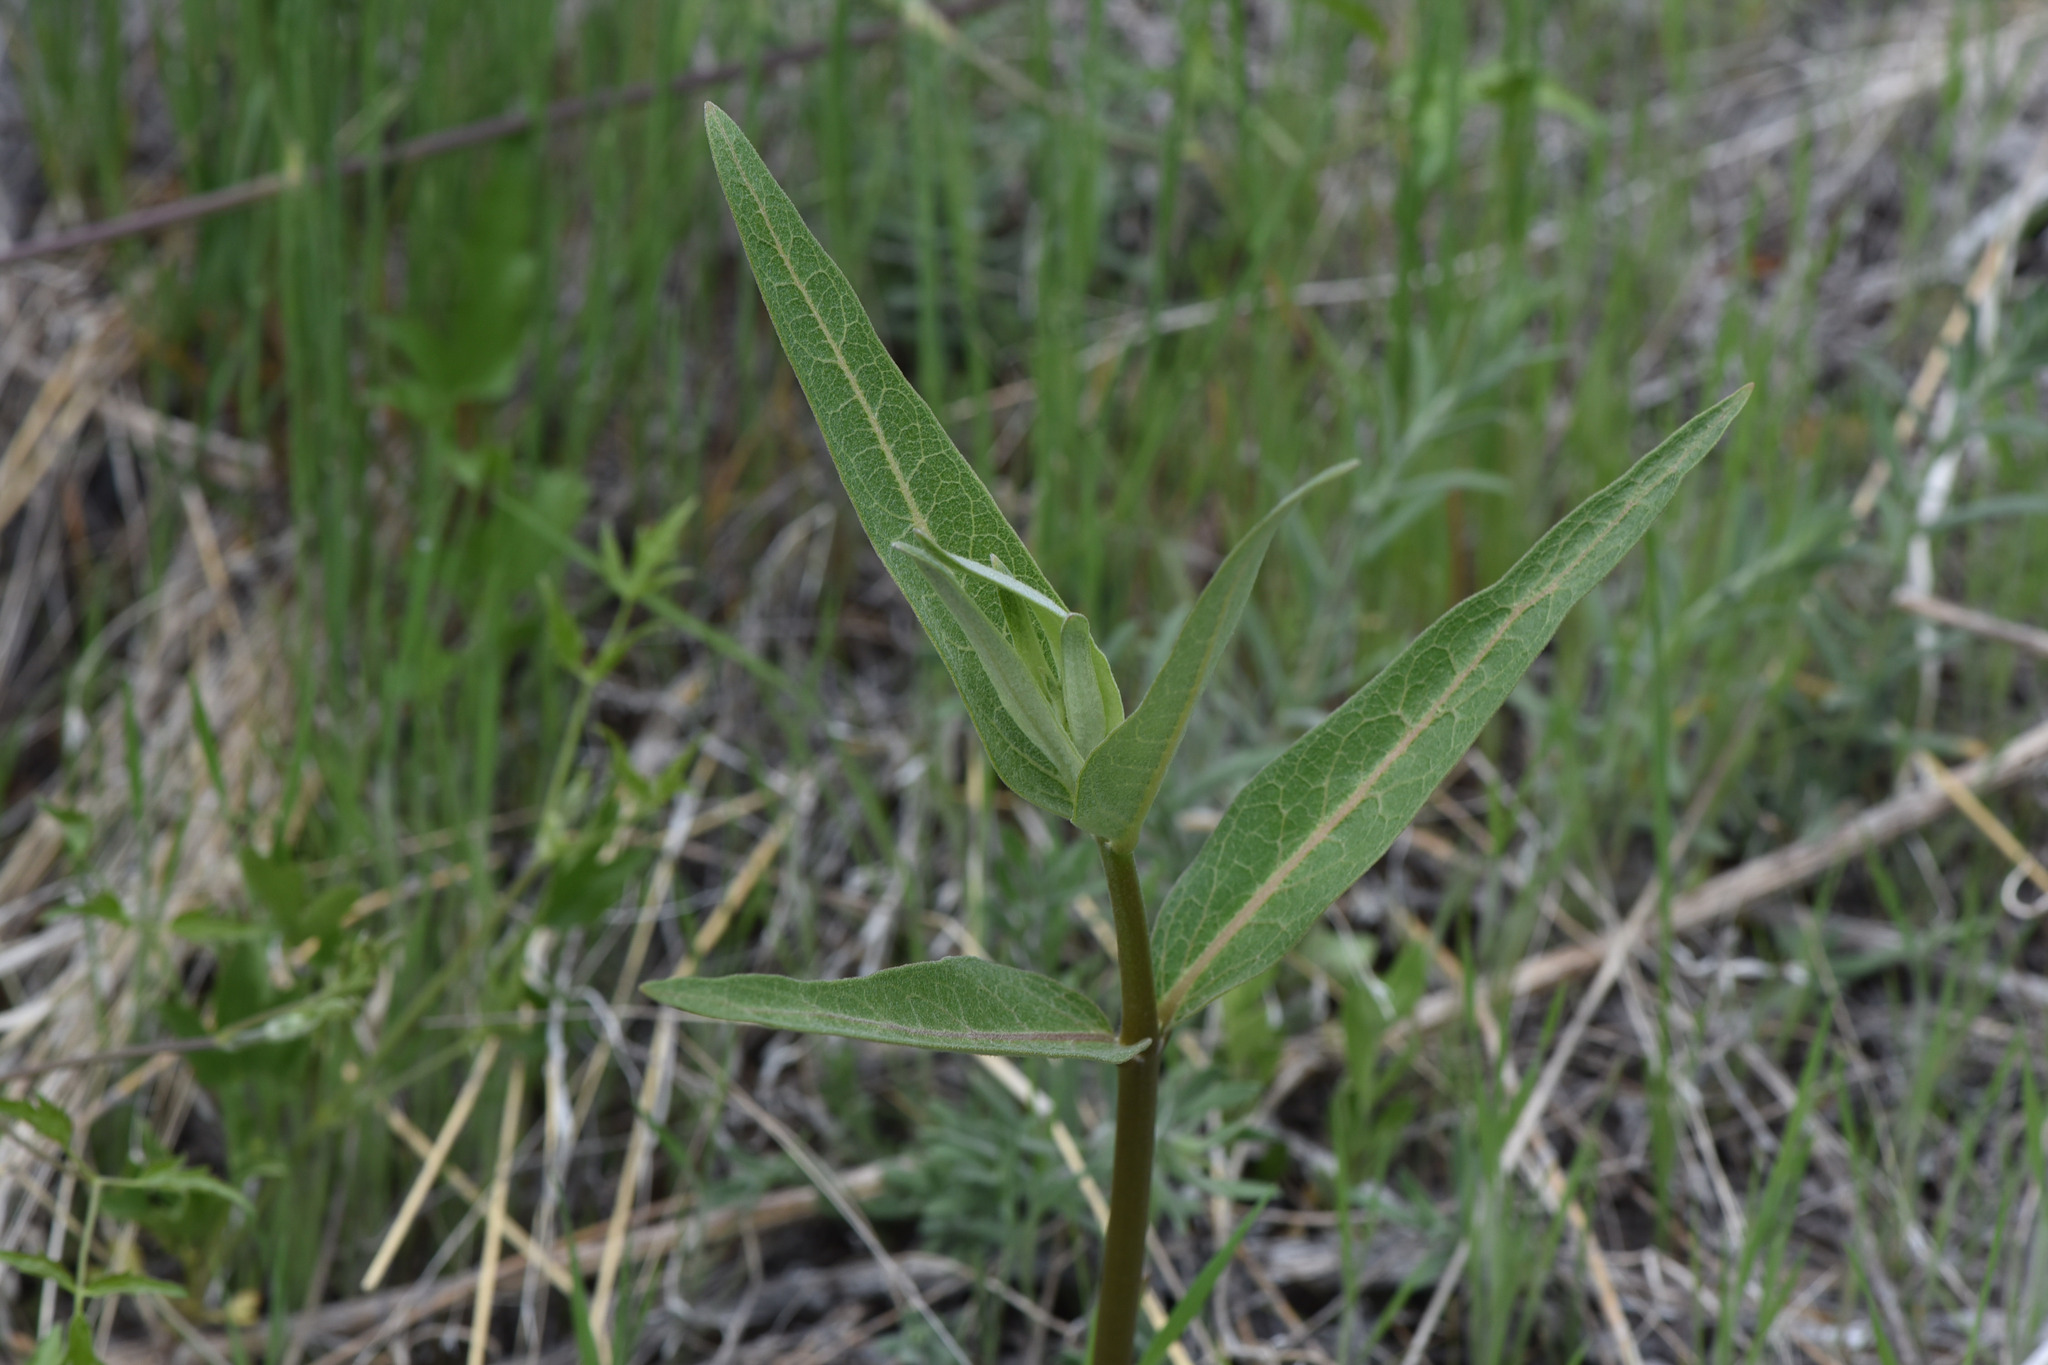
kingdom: Plantae
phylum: Tracheophyta
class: Magnoliopsida
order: Gentianales
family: Apocynaceae
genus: Asclepias
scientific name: Asclepias speciosa
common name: Showy milkweed
